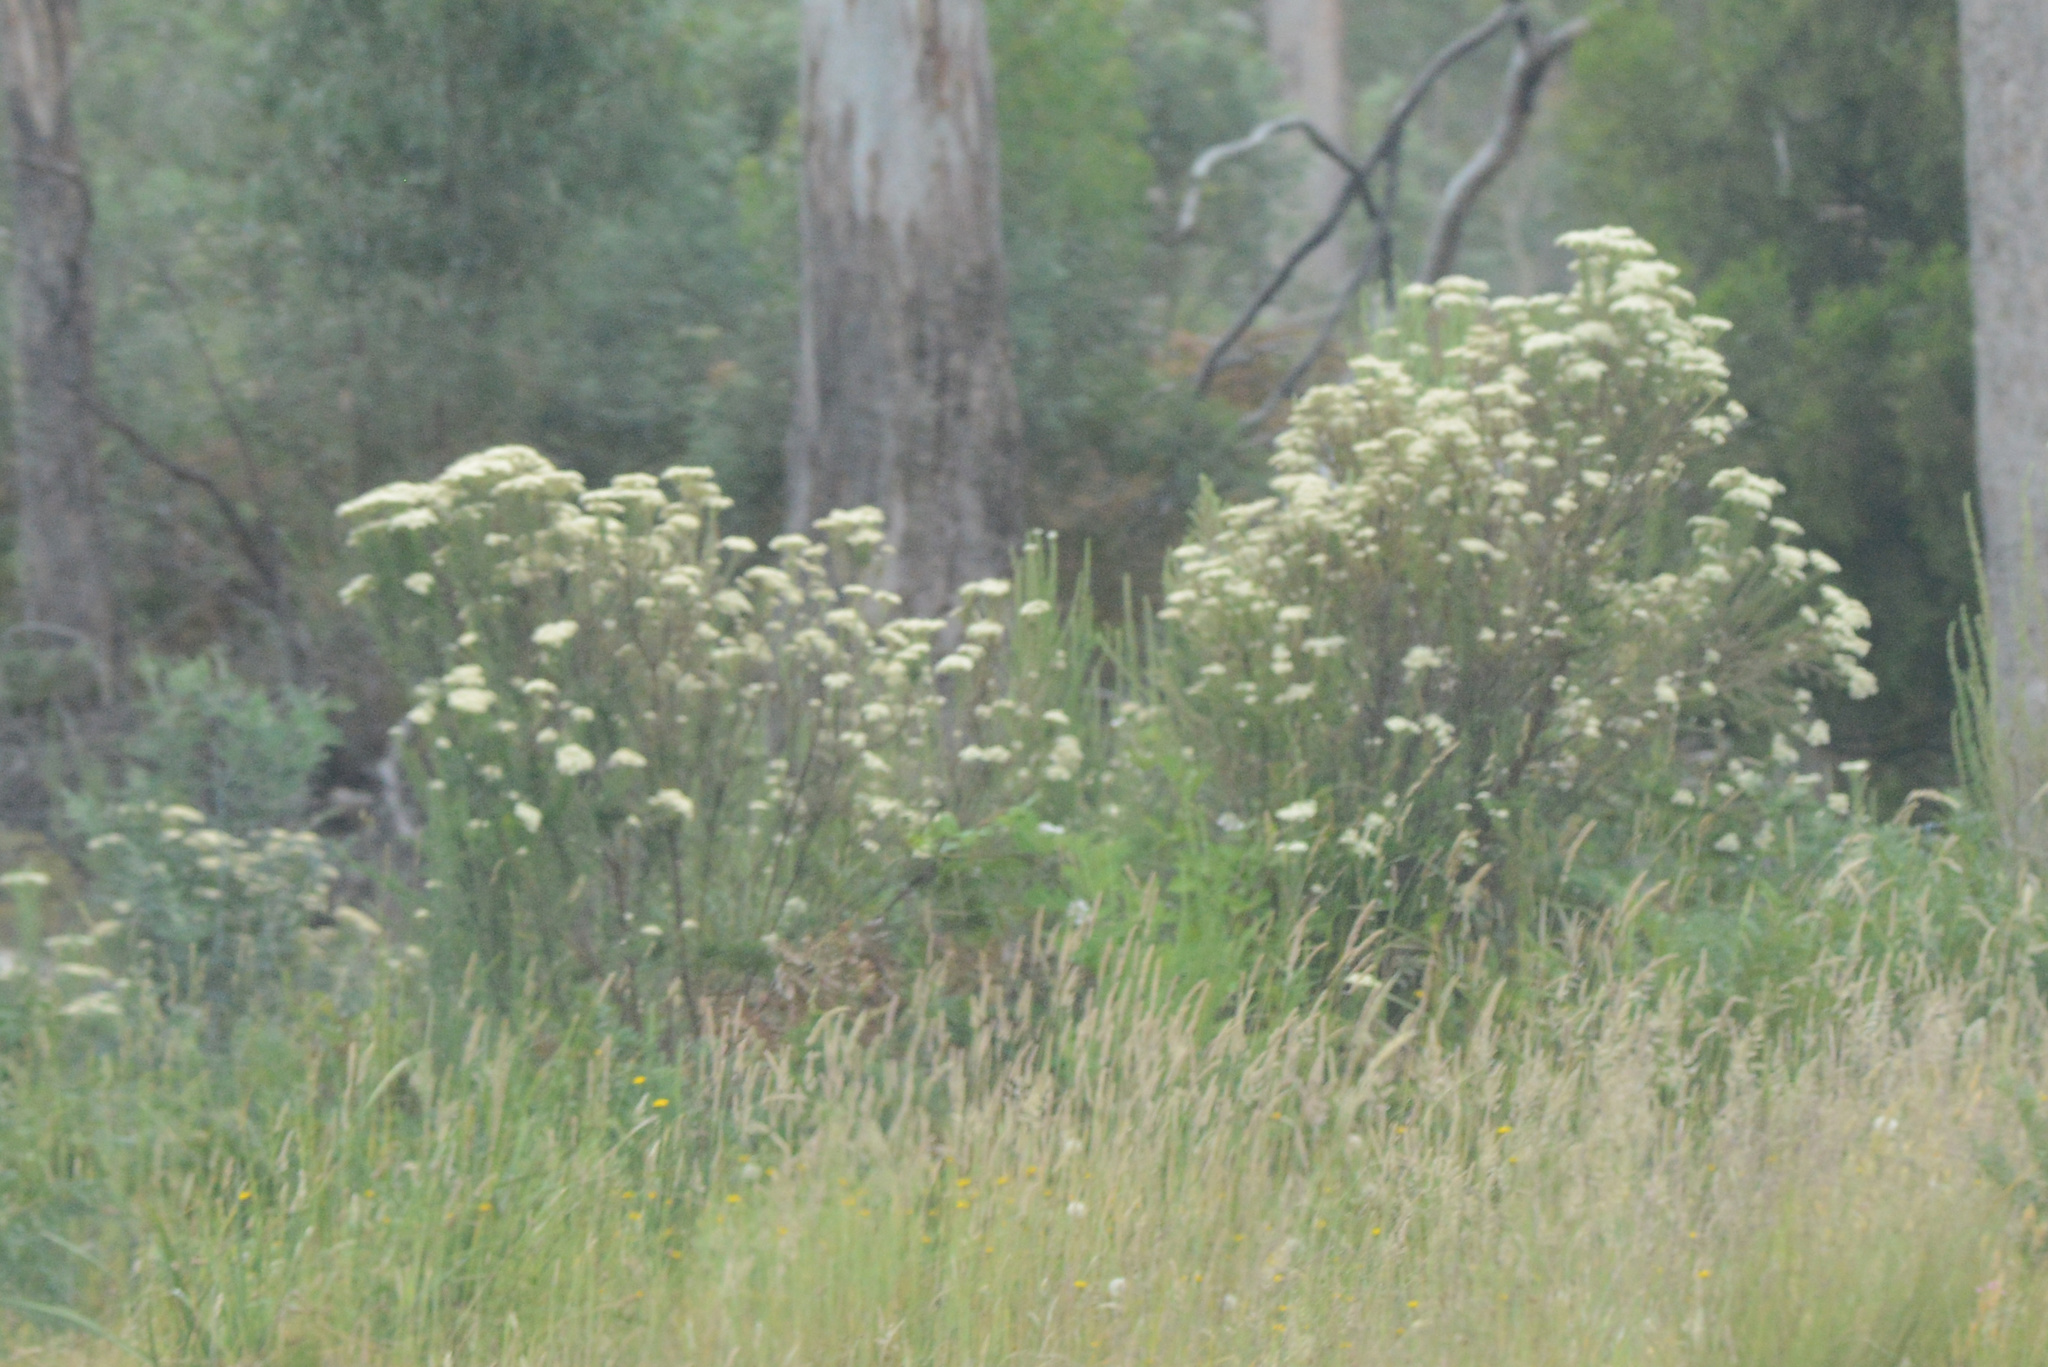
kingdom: Plantae
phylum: Tracheophyta
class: Magnoliopsida
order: Asterales
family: Asteraceae
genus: Cassinia
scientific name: Cassinia aculeata
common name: Australian tauhinu
